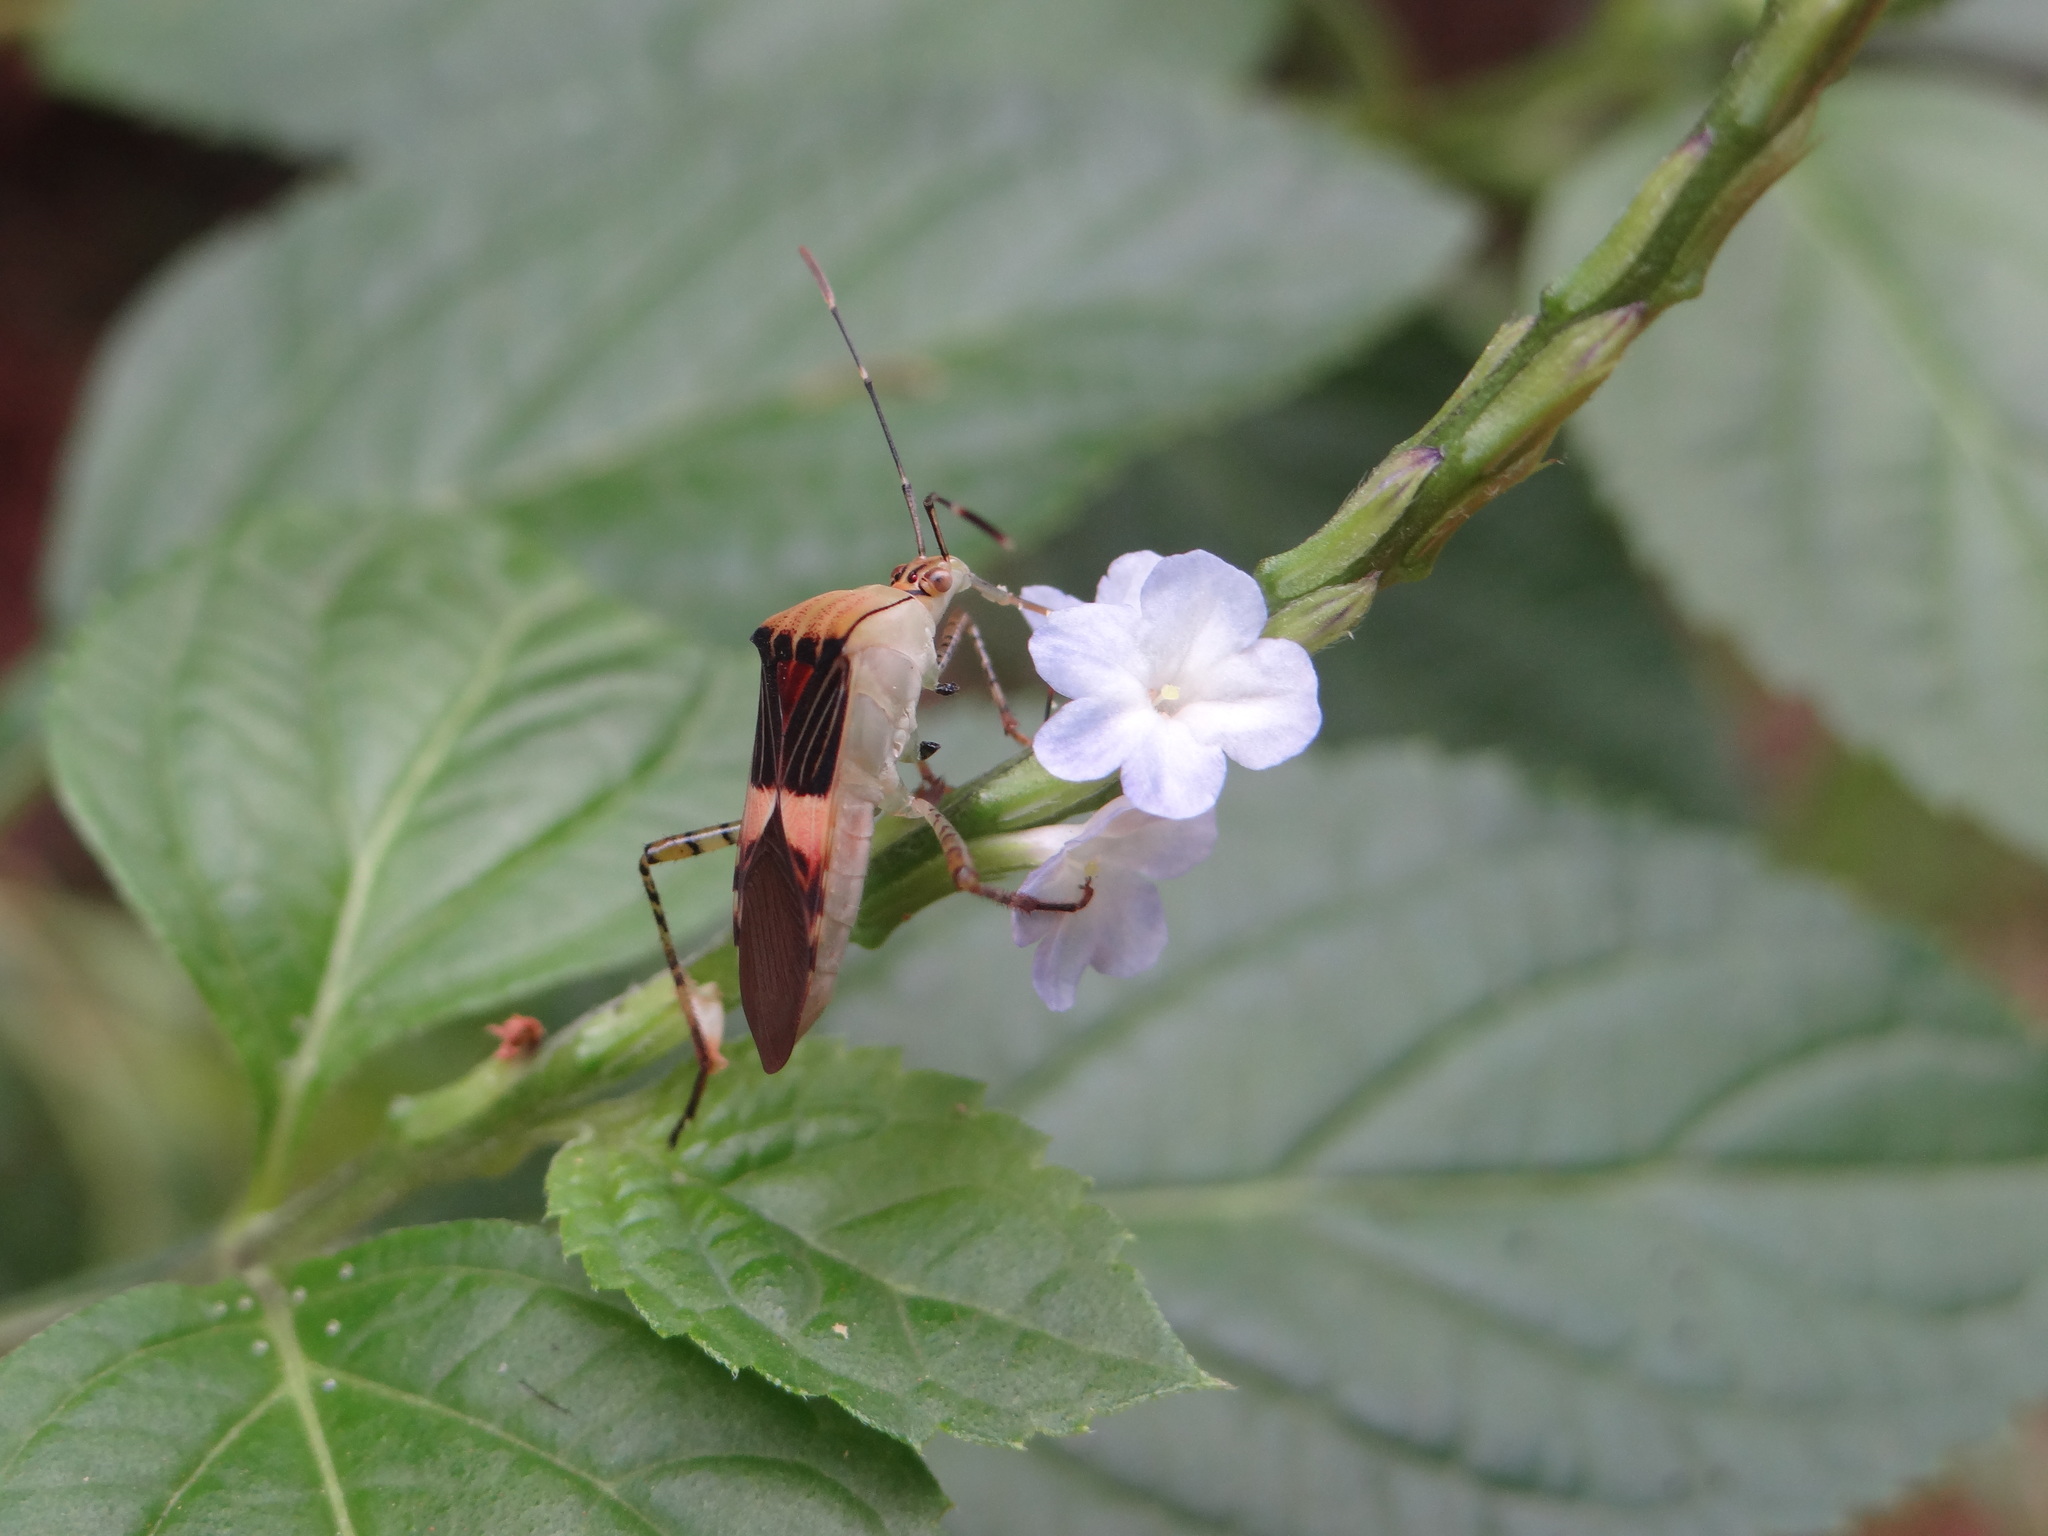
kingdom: Animalia
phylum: Arthropoda
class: Insecta
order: Hemiptera
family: Coreidae
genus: Hypselonotus
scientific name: Hypselonotus fulvus
